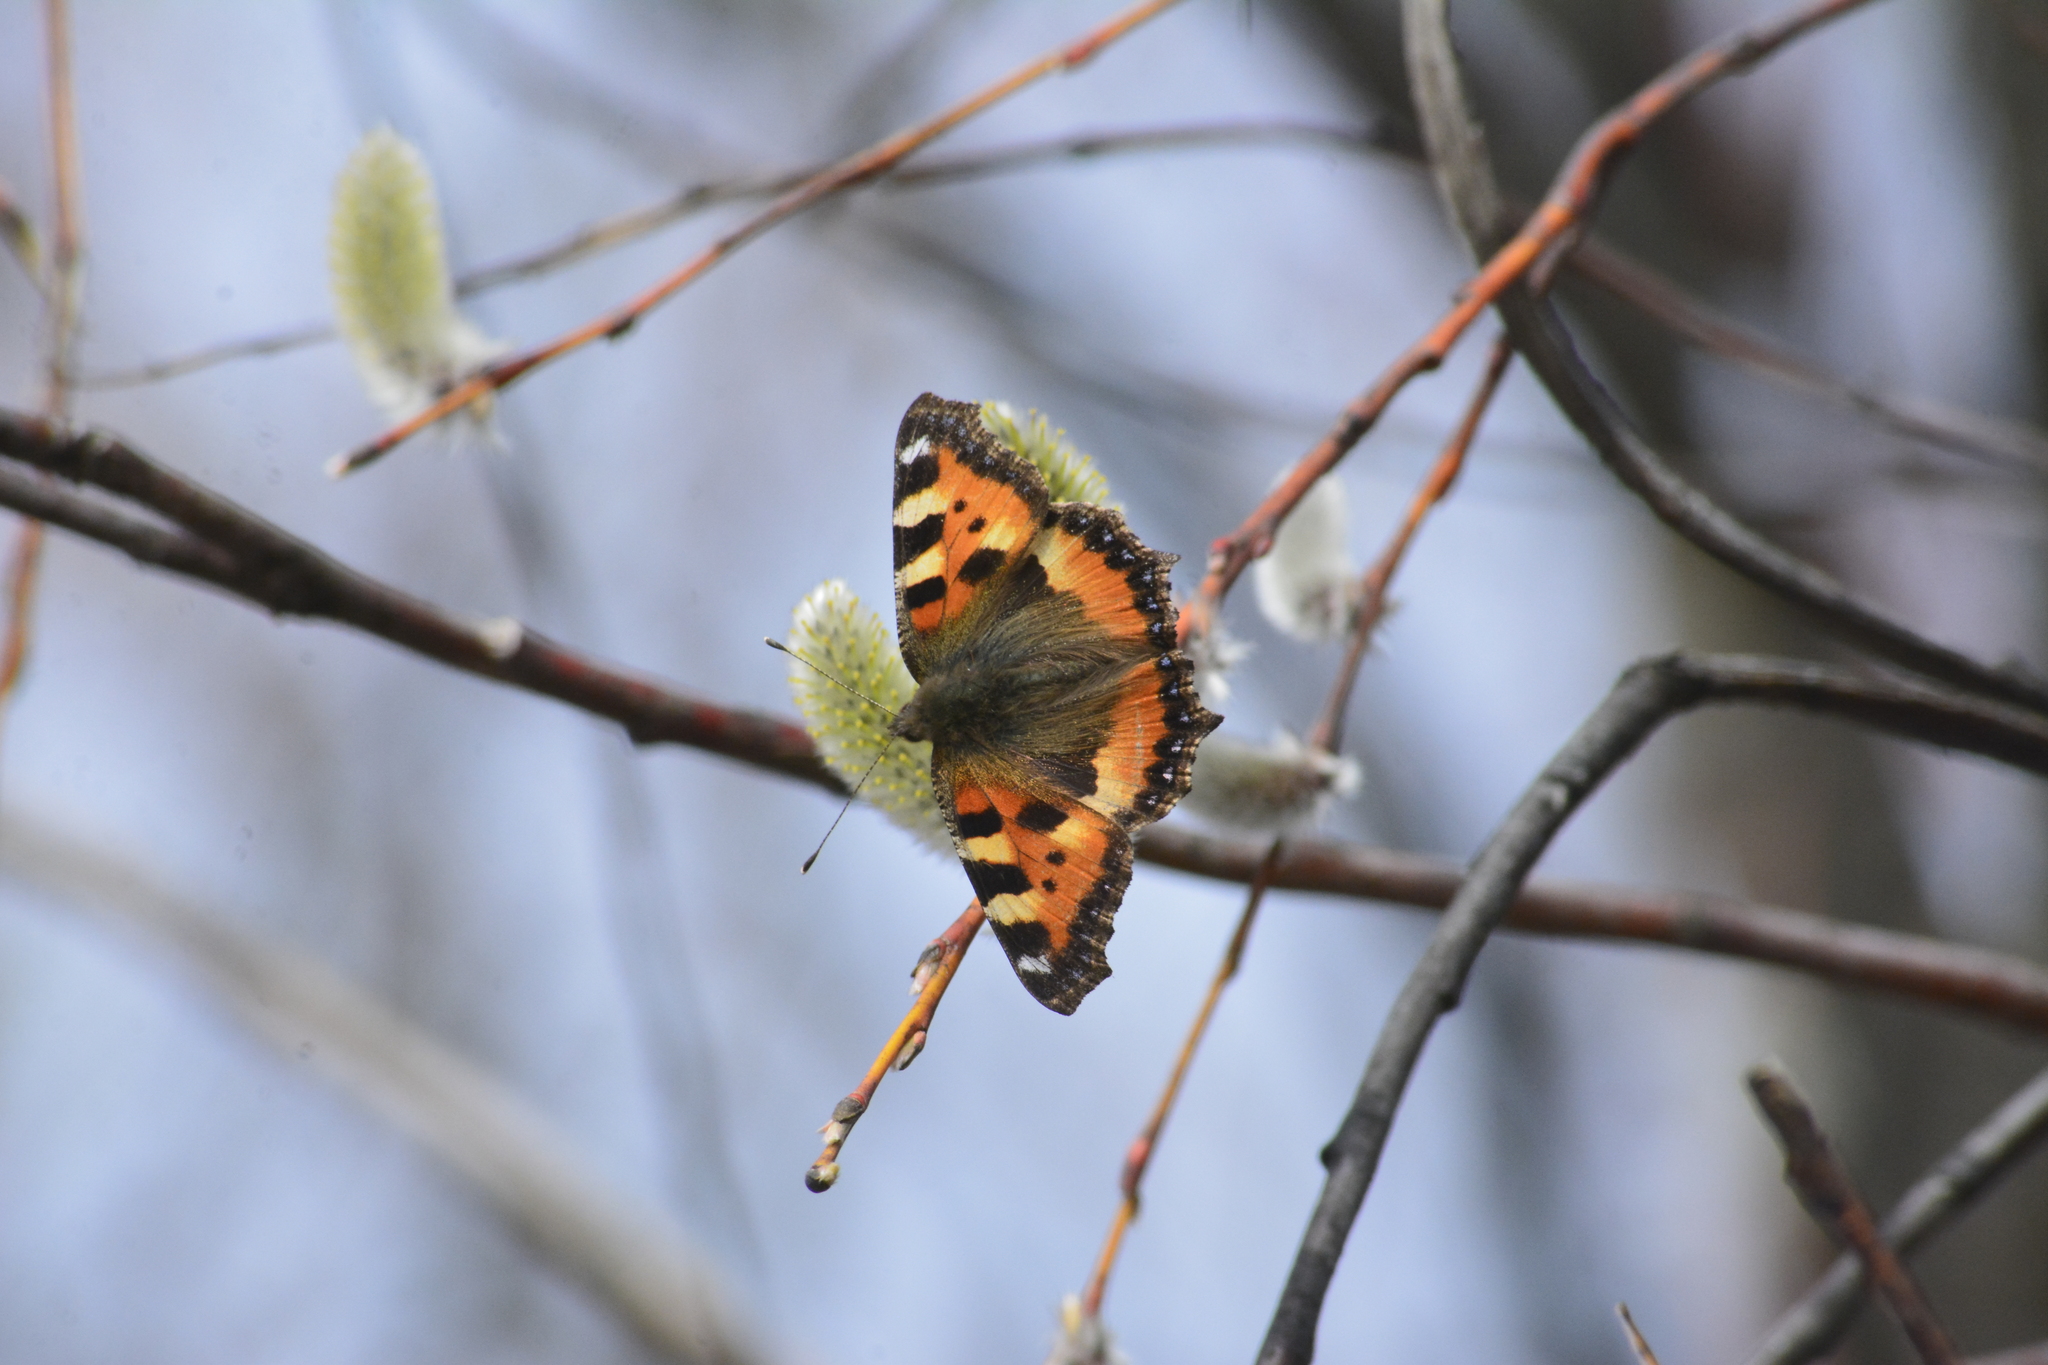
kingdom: Animalia
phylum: Arthropoda
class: Insecta
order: Lepidoptera
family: Nymphalidae
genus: Aglais
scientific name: Aglais urticae
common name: Small tortoiseshell
